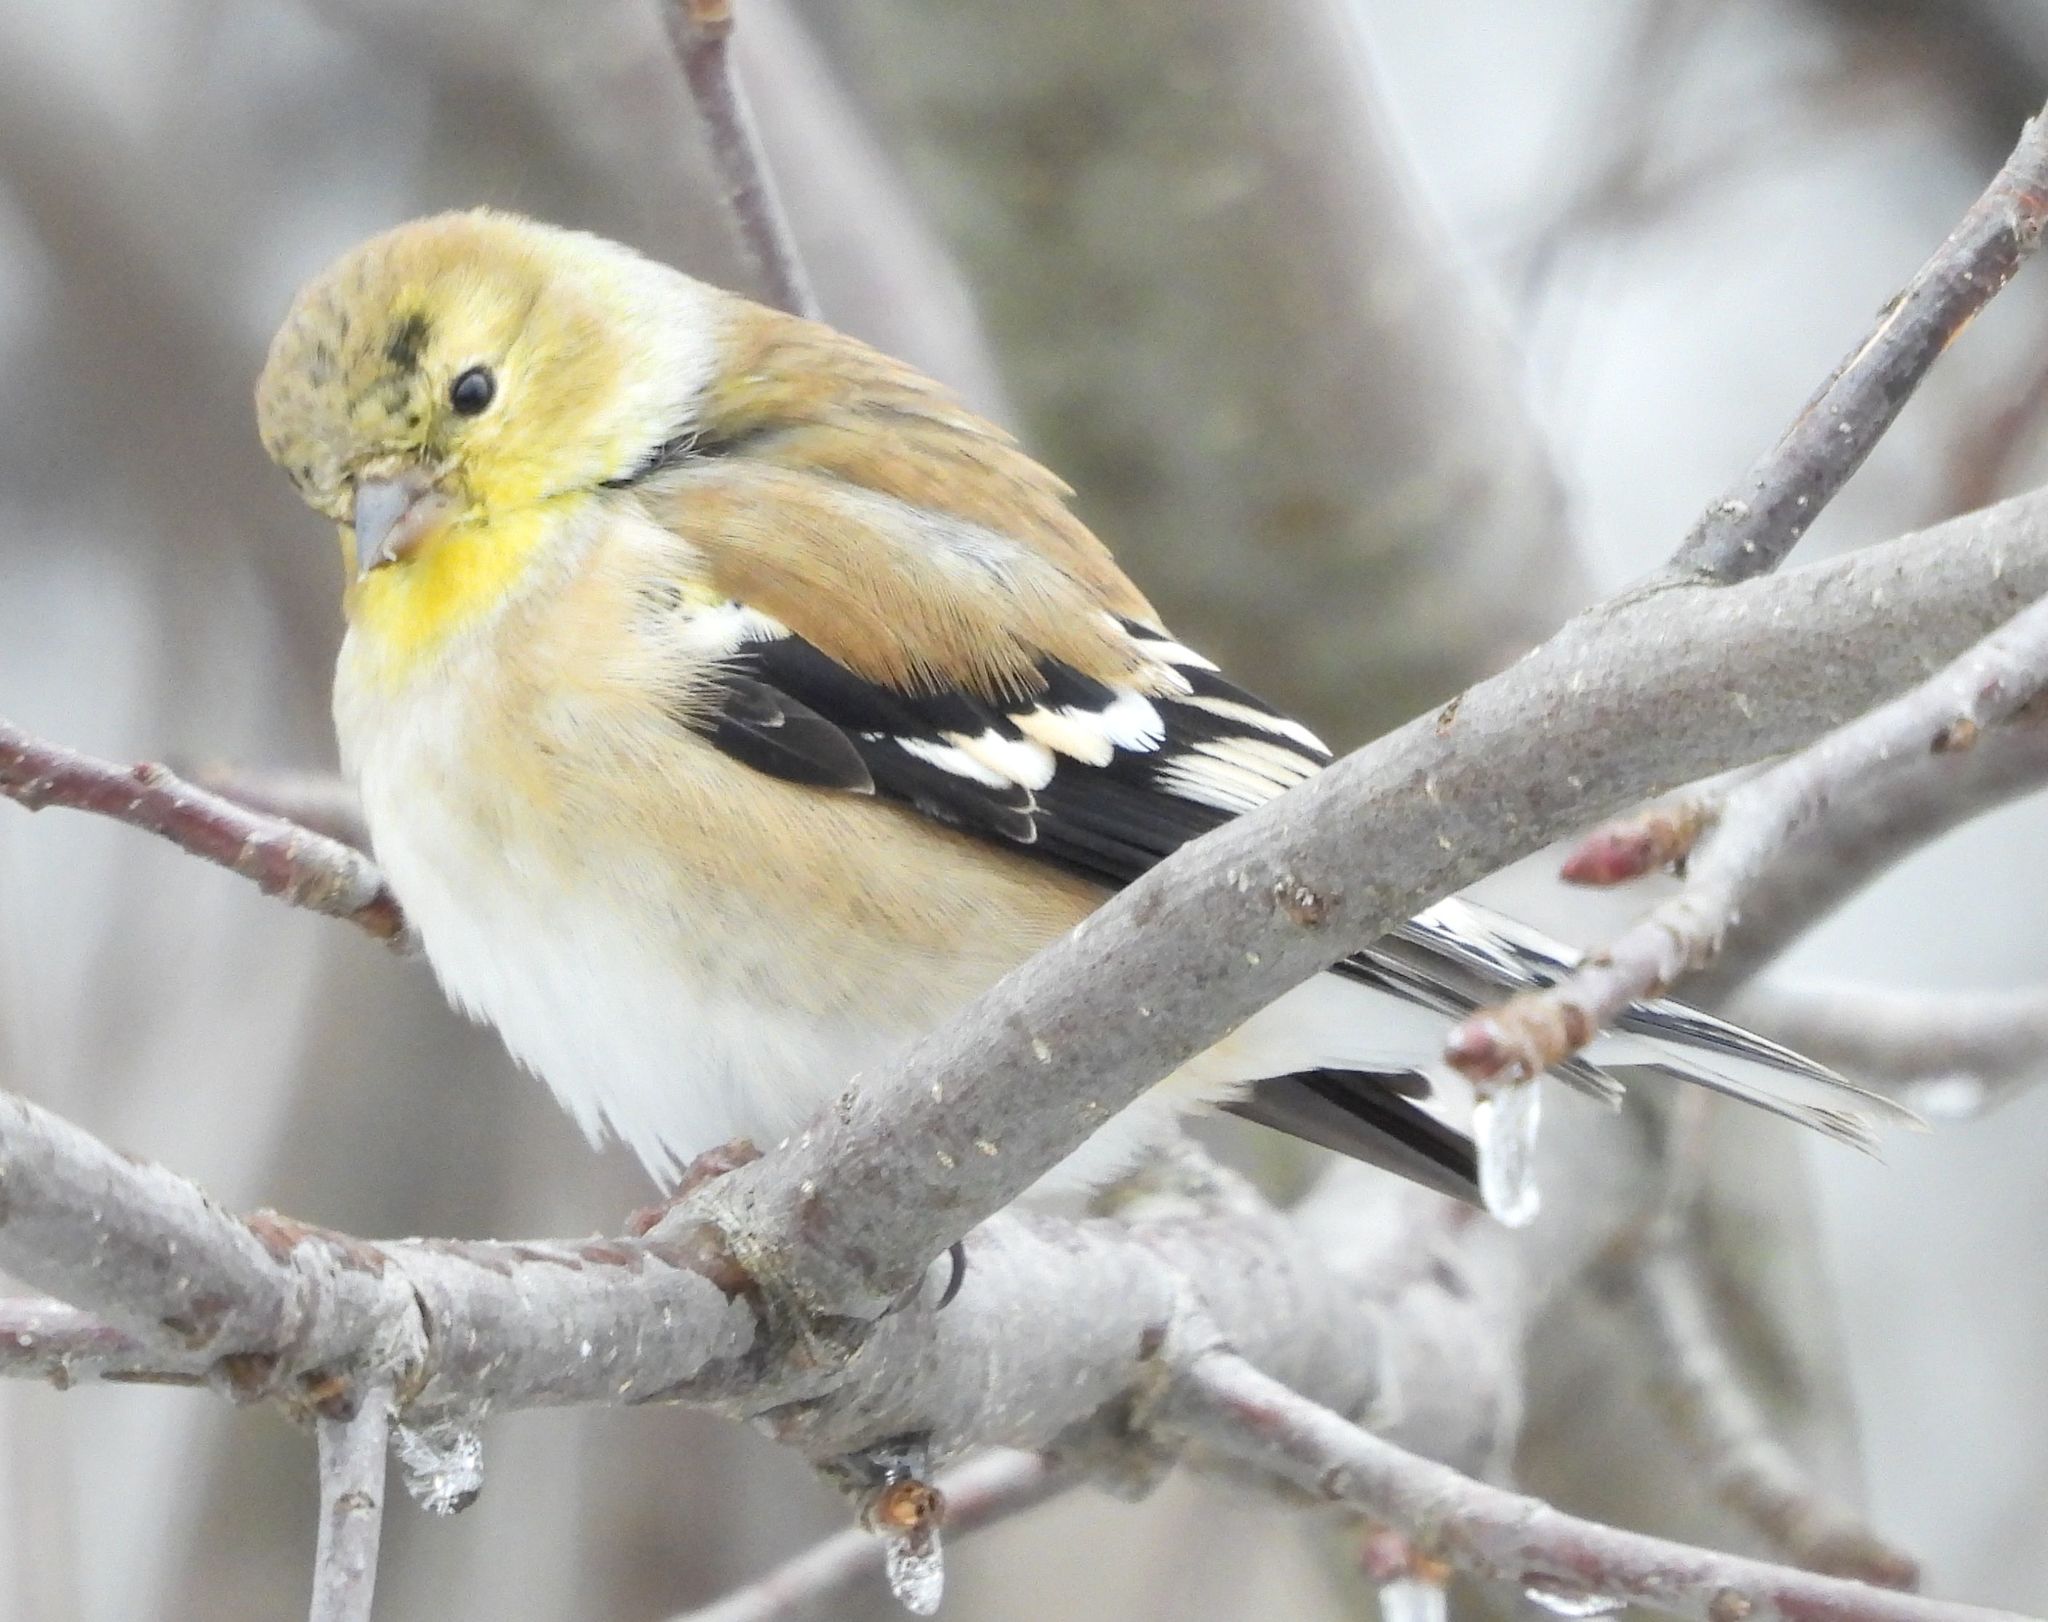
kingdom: Animalia
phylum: Chordata
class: Aves
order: Passeriformes
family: Fringillidae
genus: Spinus
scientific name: Spinus tristis
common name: American goldfinch
